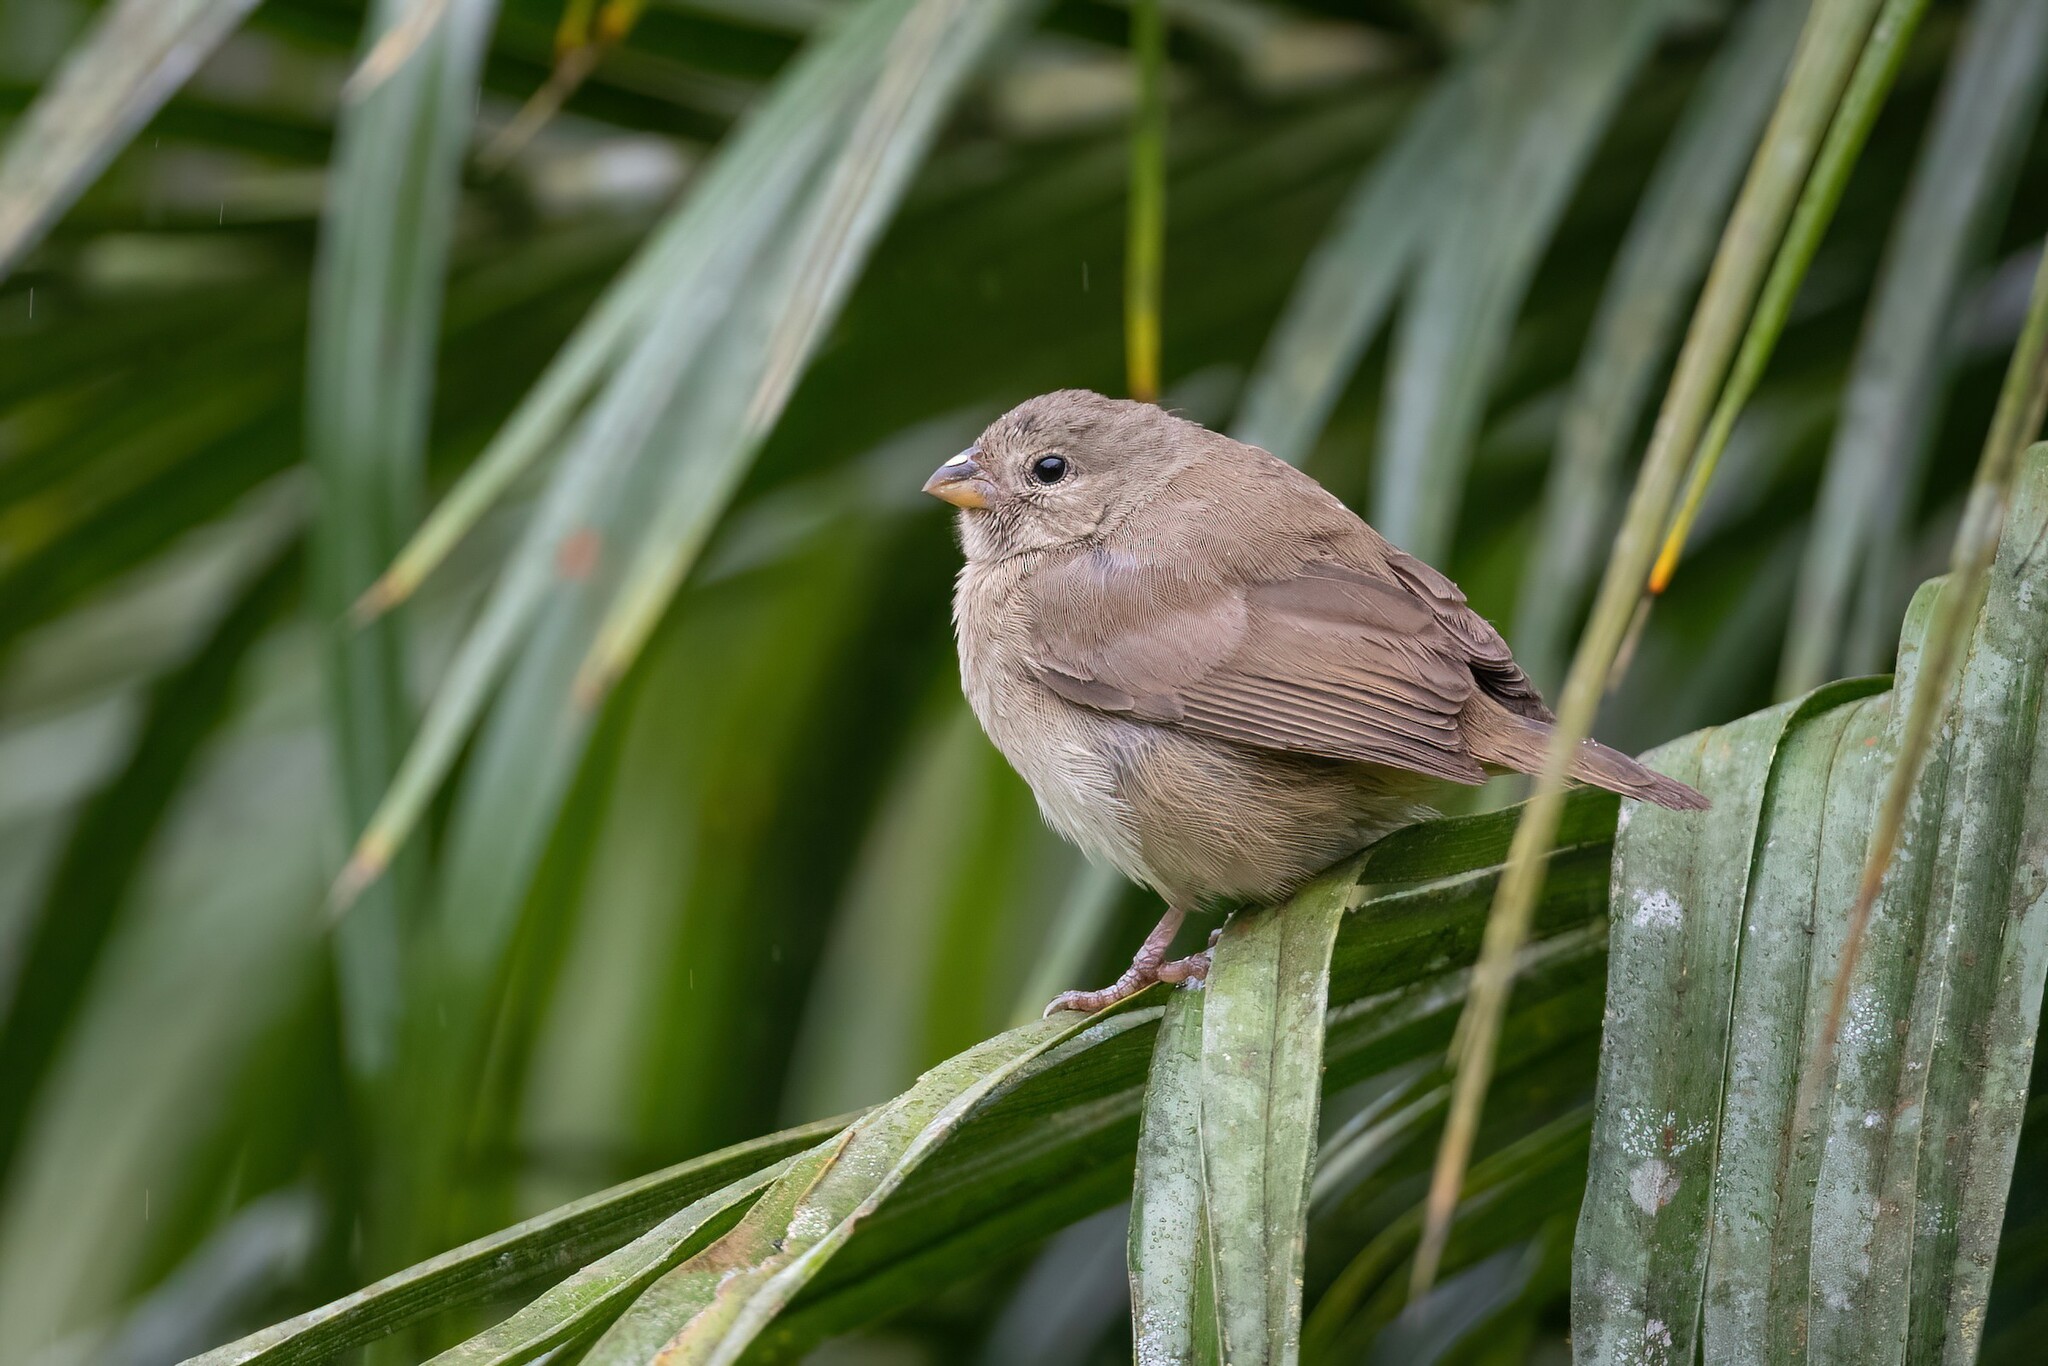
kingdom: Animalia
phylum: Chordata
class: Aves
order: Passeriformes
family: Thraupidae
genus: Asemospiza
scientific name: Asemospiza obscura
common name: Dull-colored grassquit
